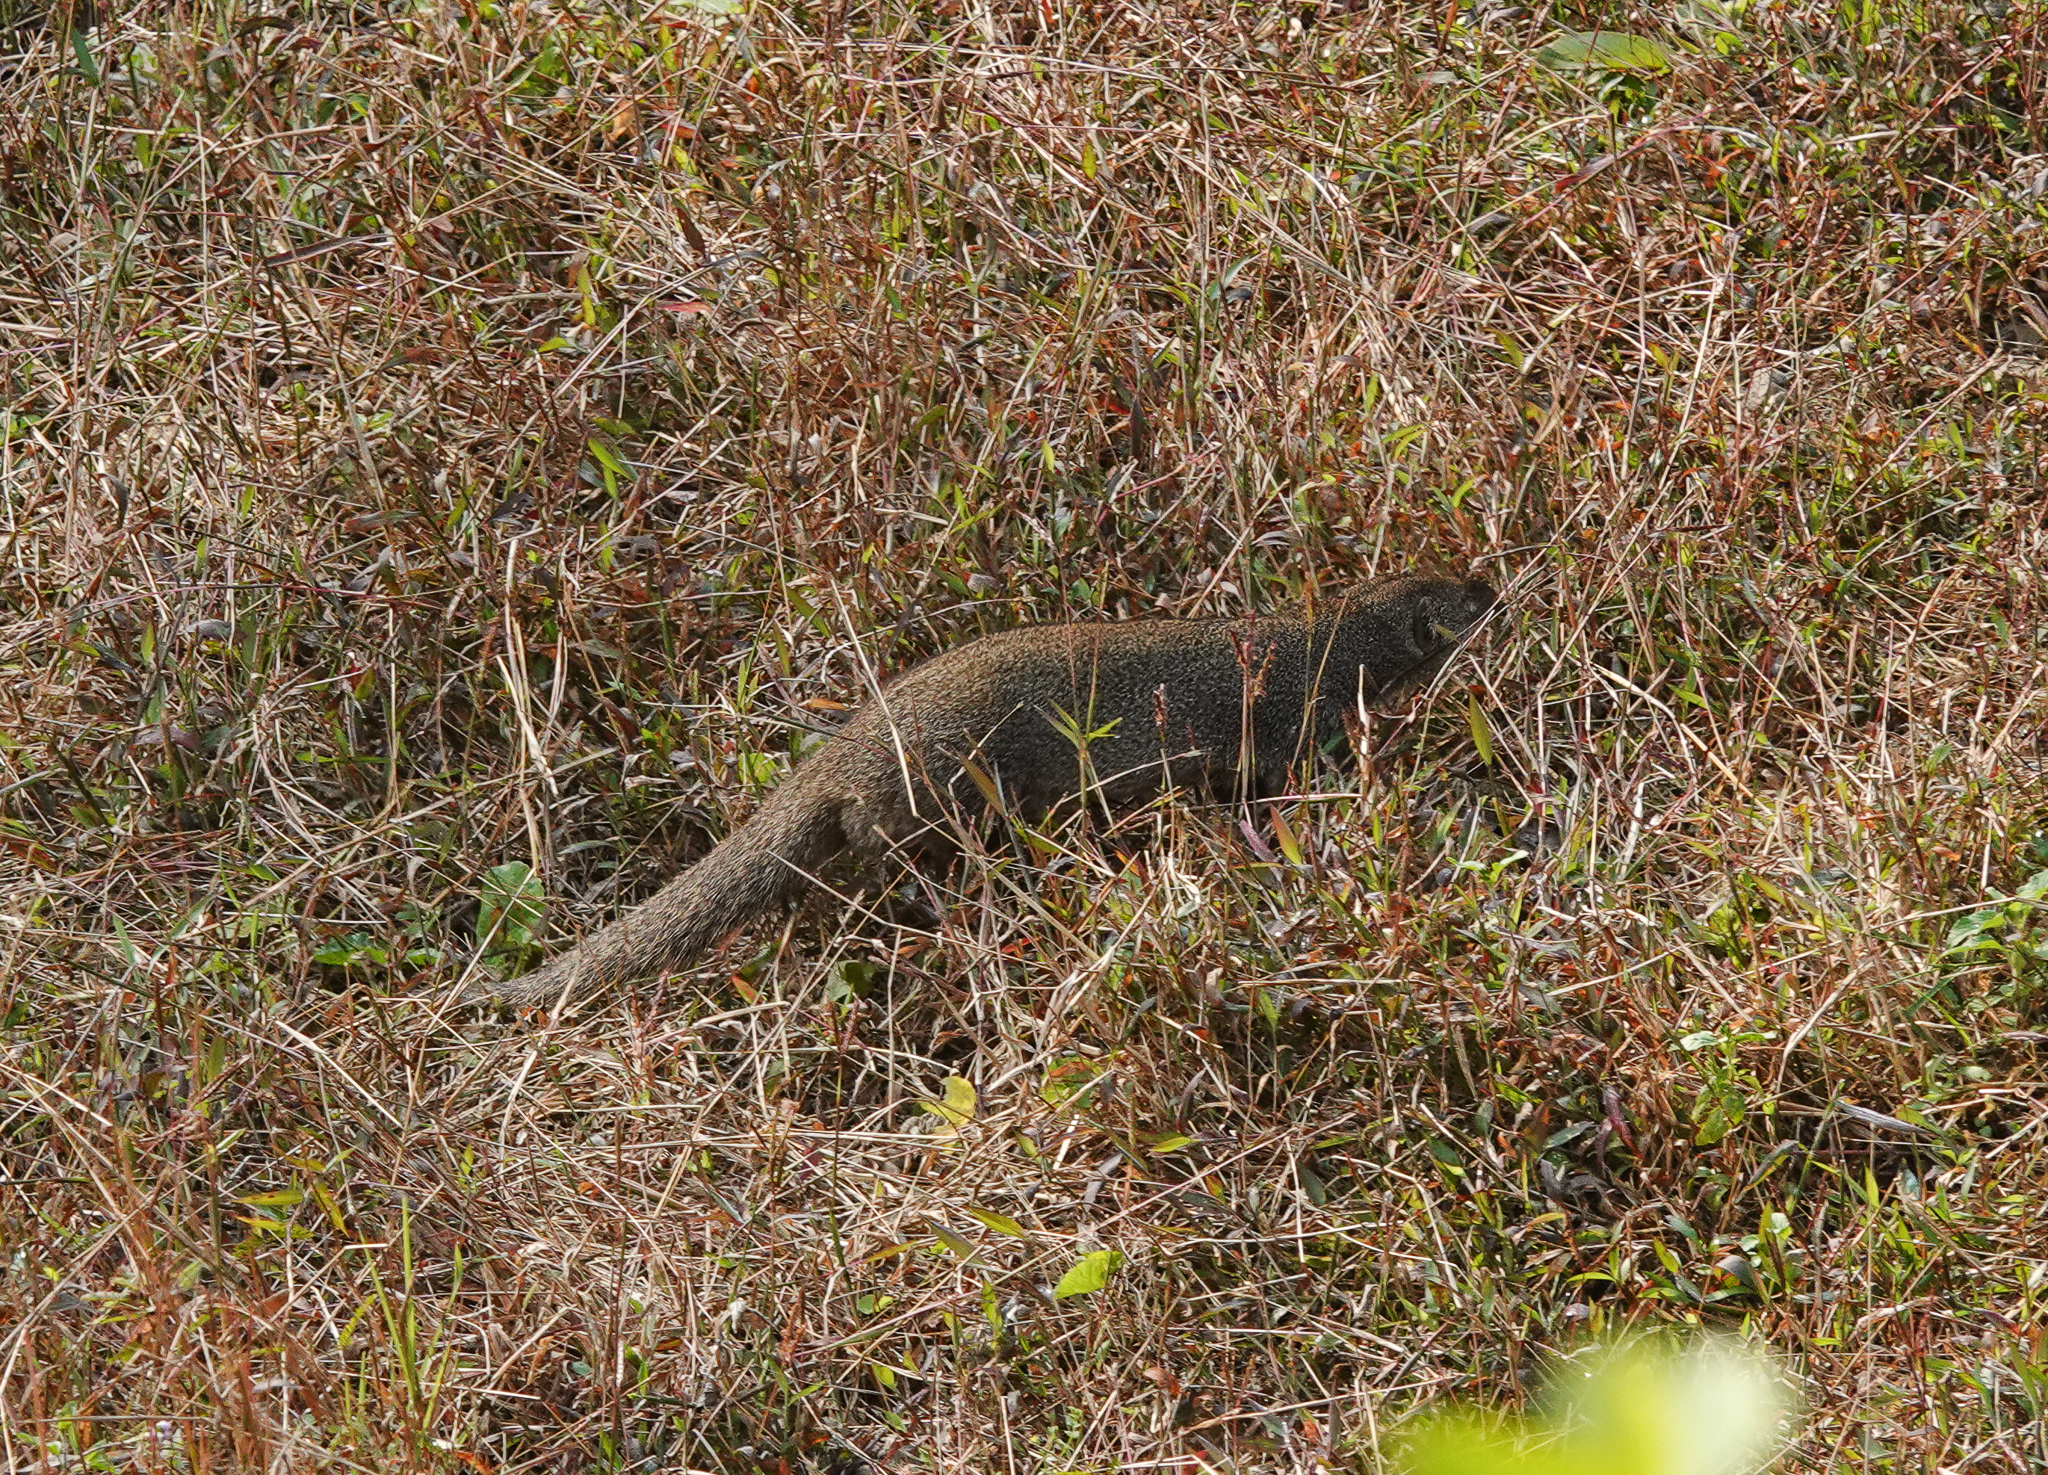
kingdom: Animalia
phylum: Chordata
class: Mammalia
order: Carnivora
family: Herpestidae
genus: Herpestes
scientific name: Herpestes javanicus
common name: Small asian mongoose
